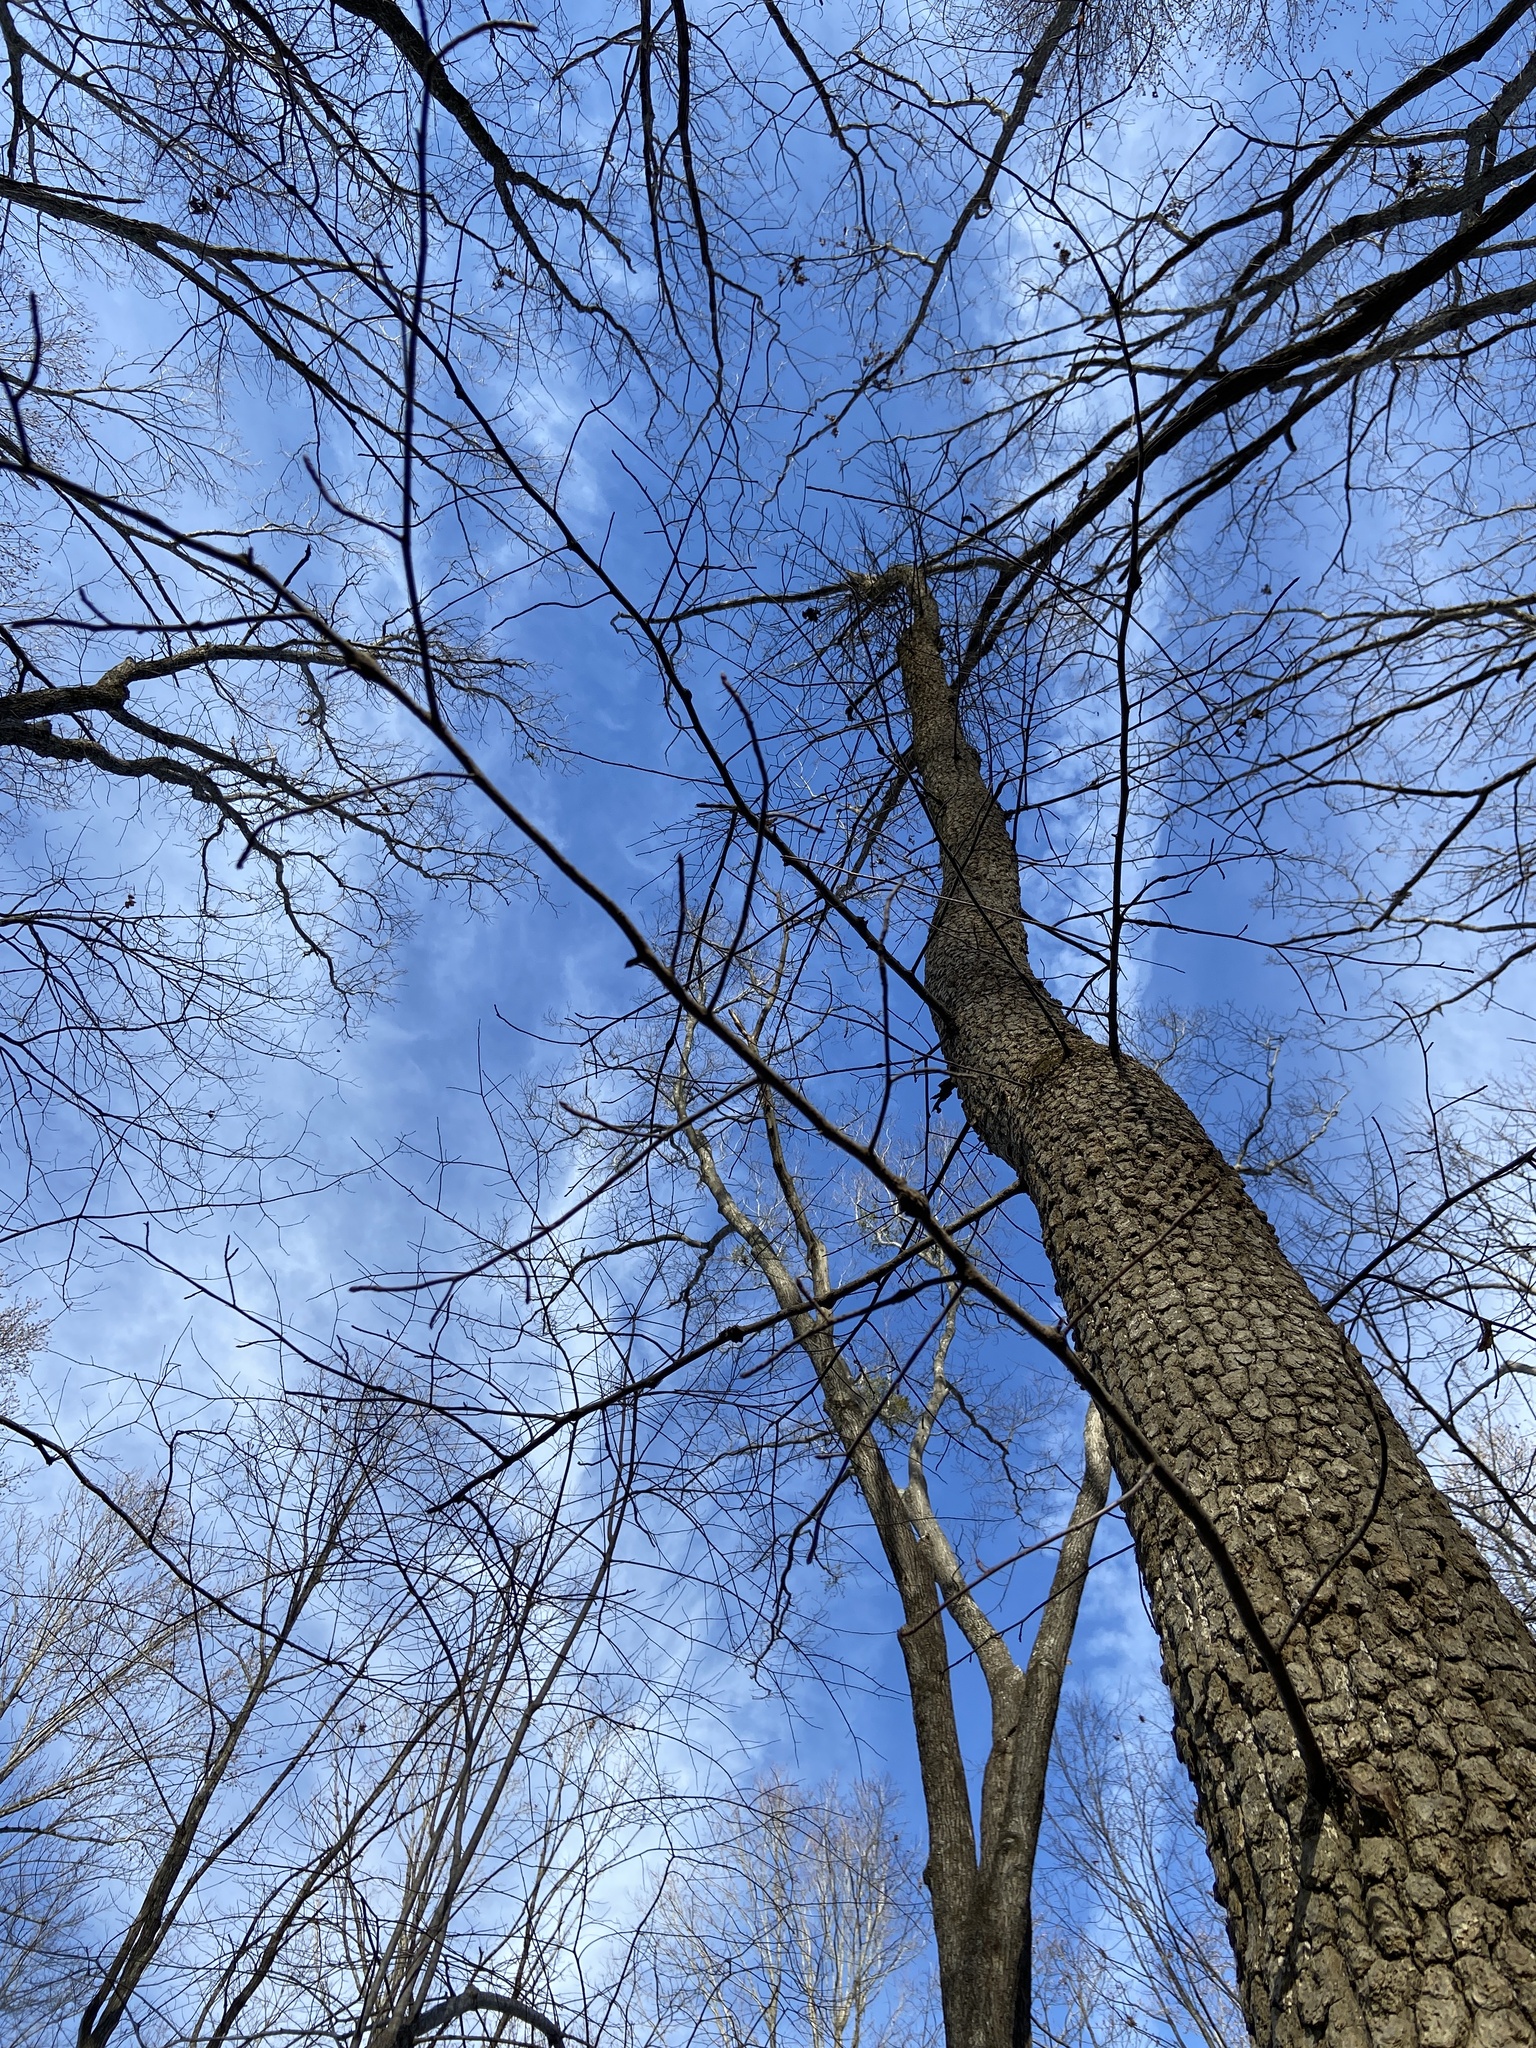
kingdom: Plantae
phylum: Tracheophyta
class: Magnoliopsida
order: Cornales
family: Nyssaceae
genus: Nyssa
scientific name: Nyssa sylvatica
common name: Black tupelo
